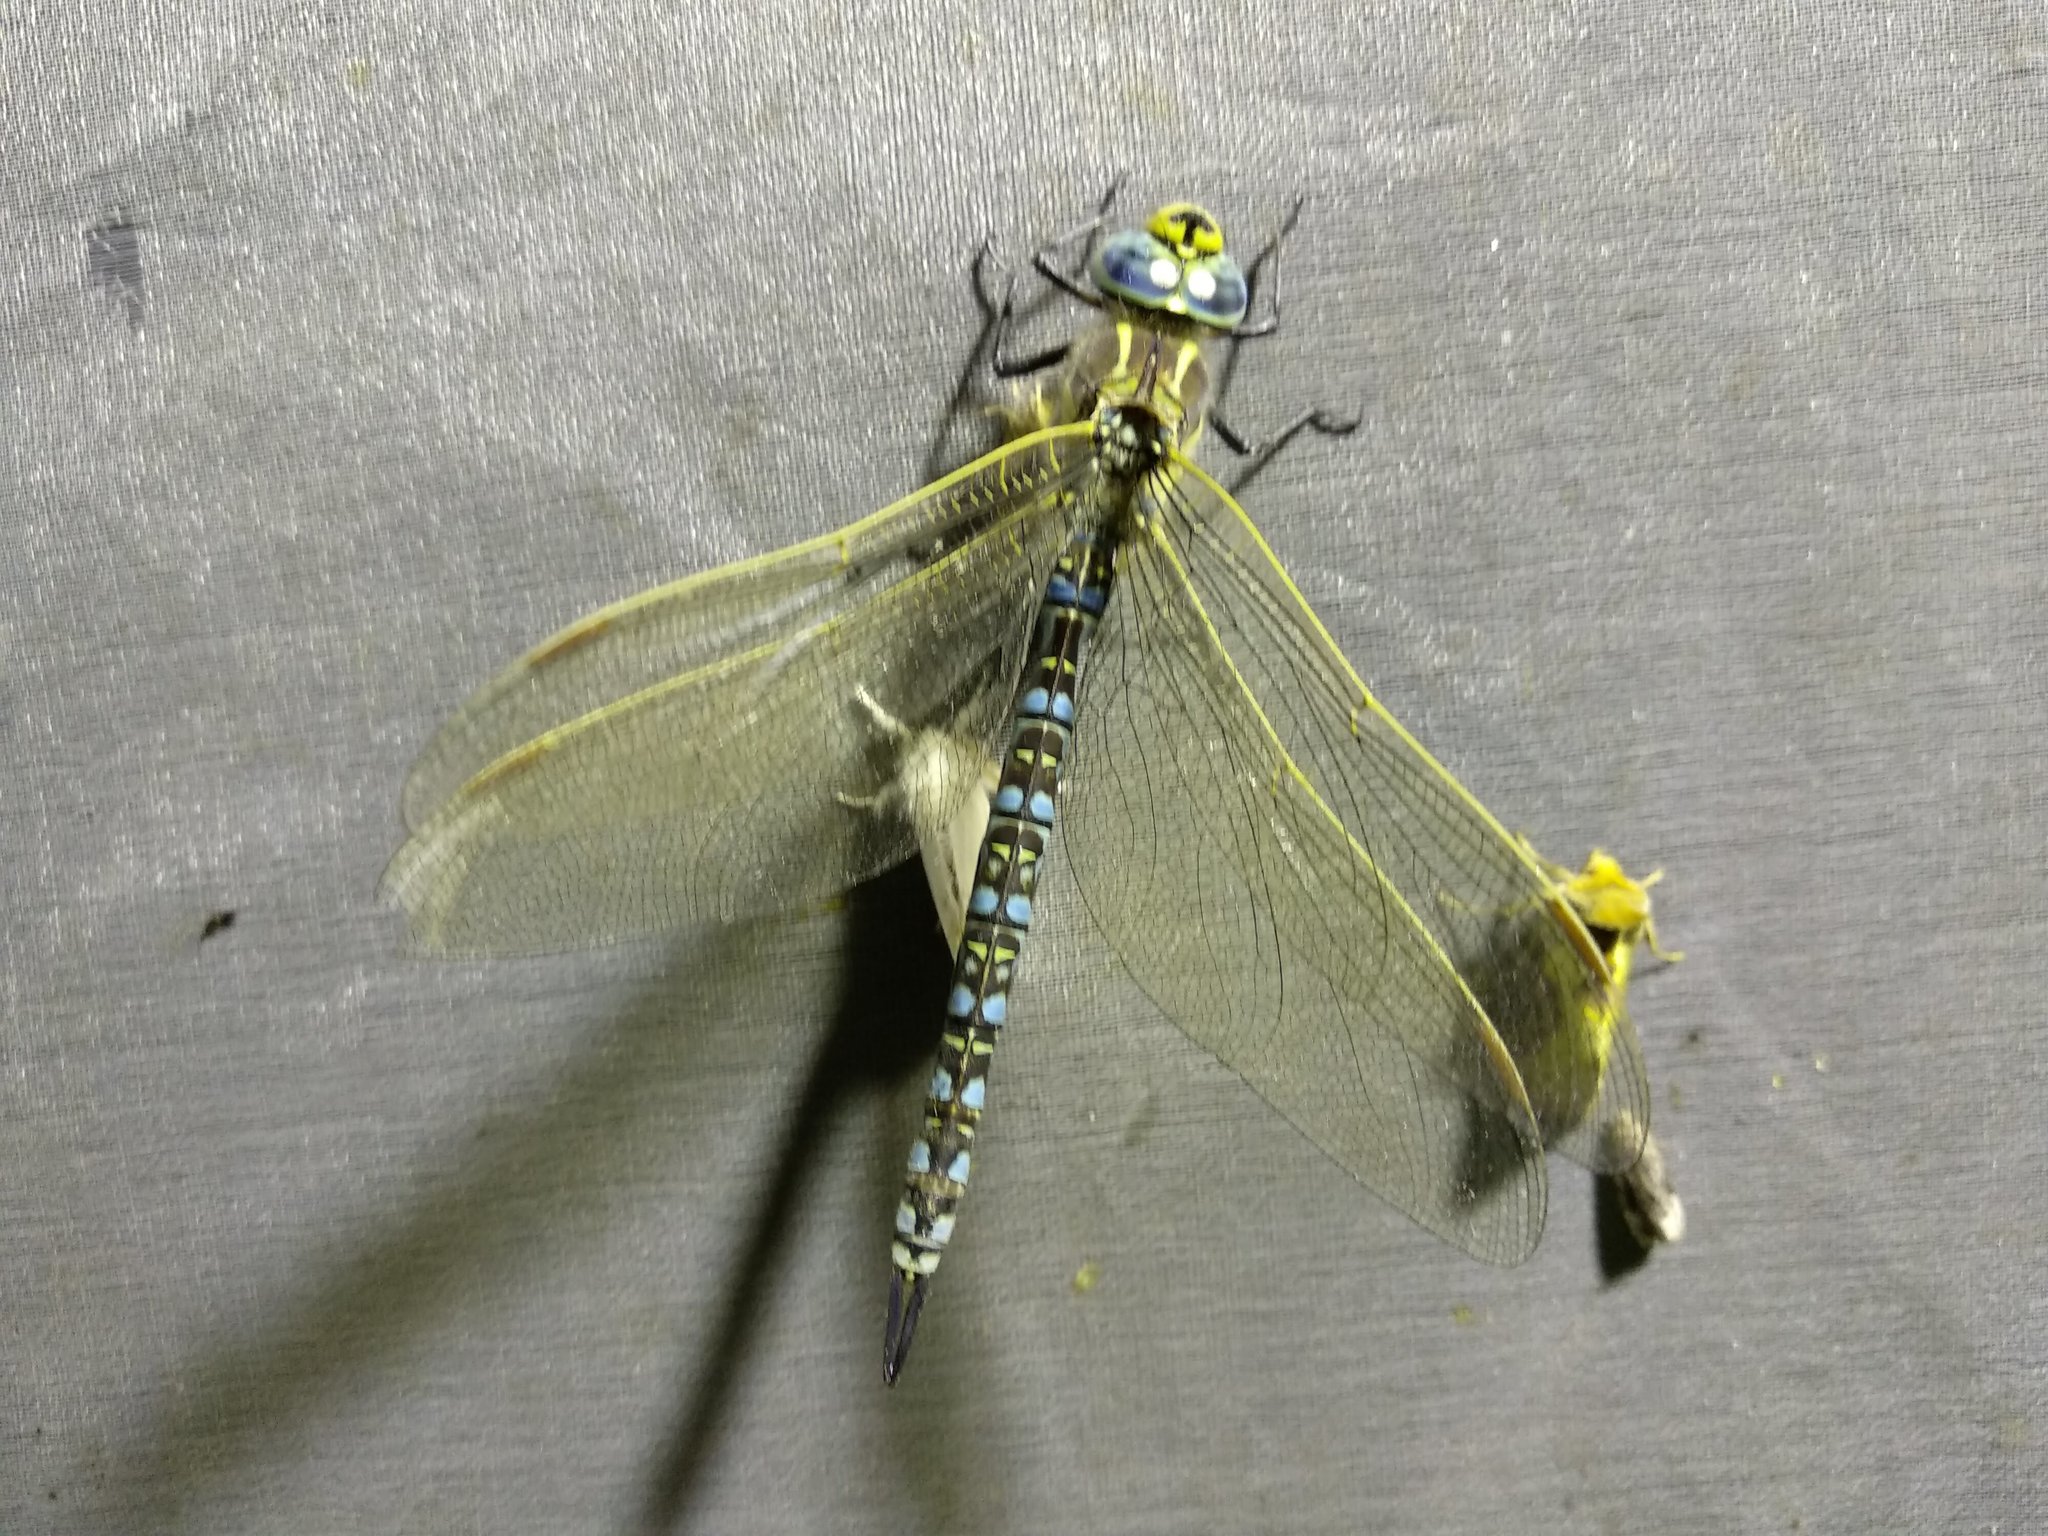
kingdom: Animalia
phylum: Arthropoda
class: Insecta
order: Odonata
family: Aeshnidae
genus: Aeshna
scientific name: Aeshna serrata
